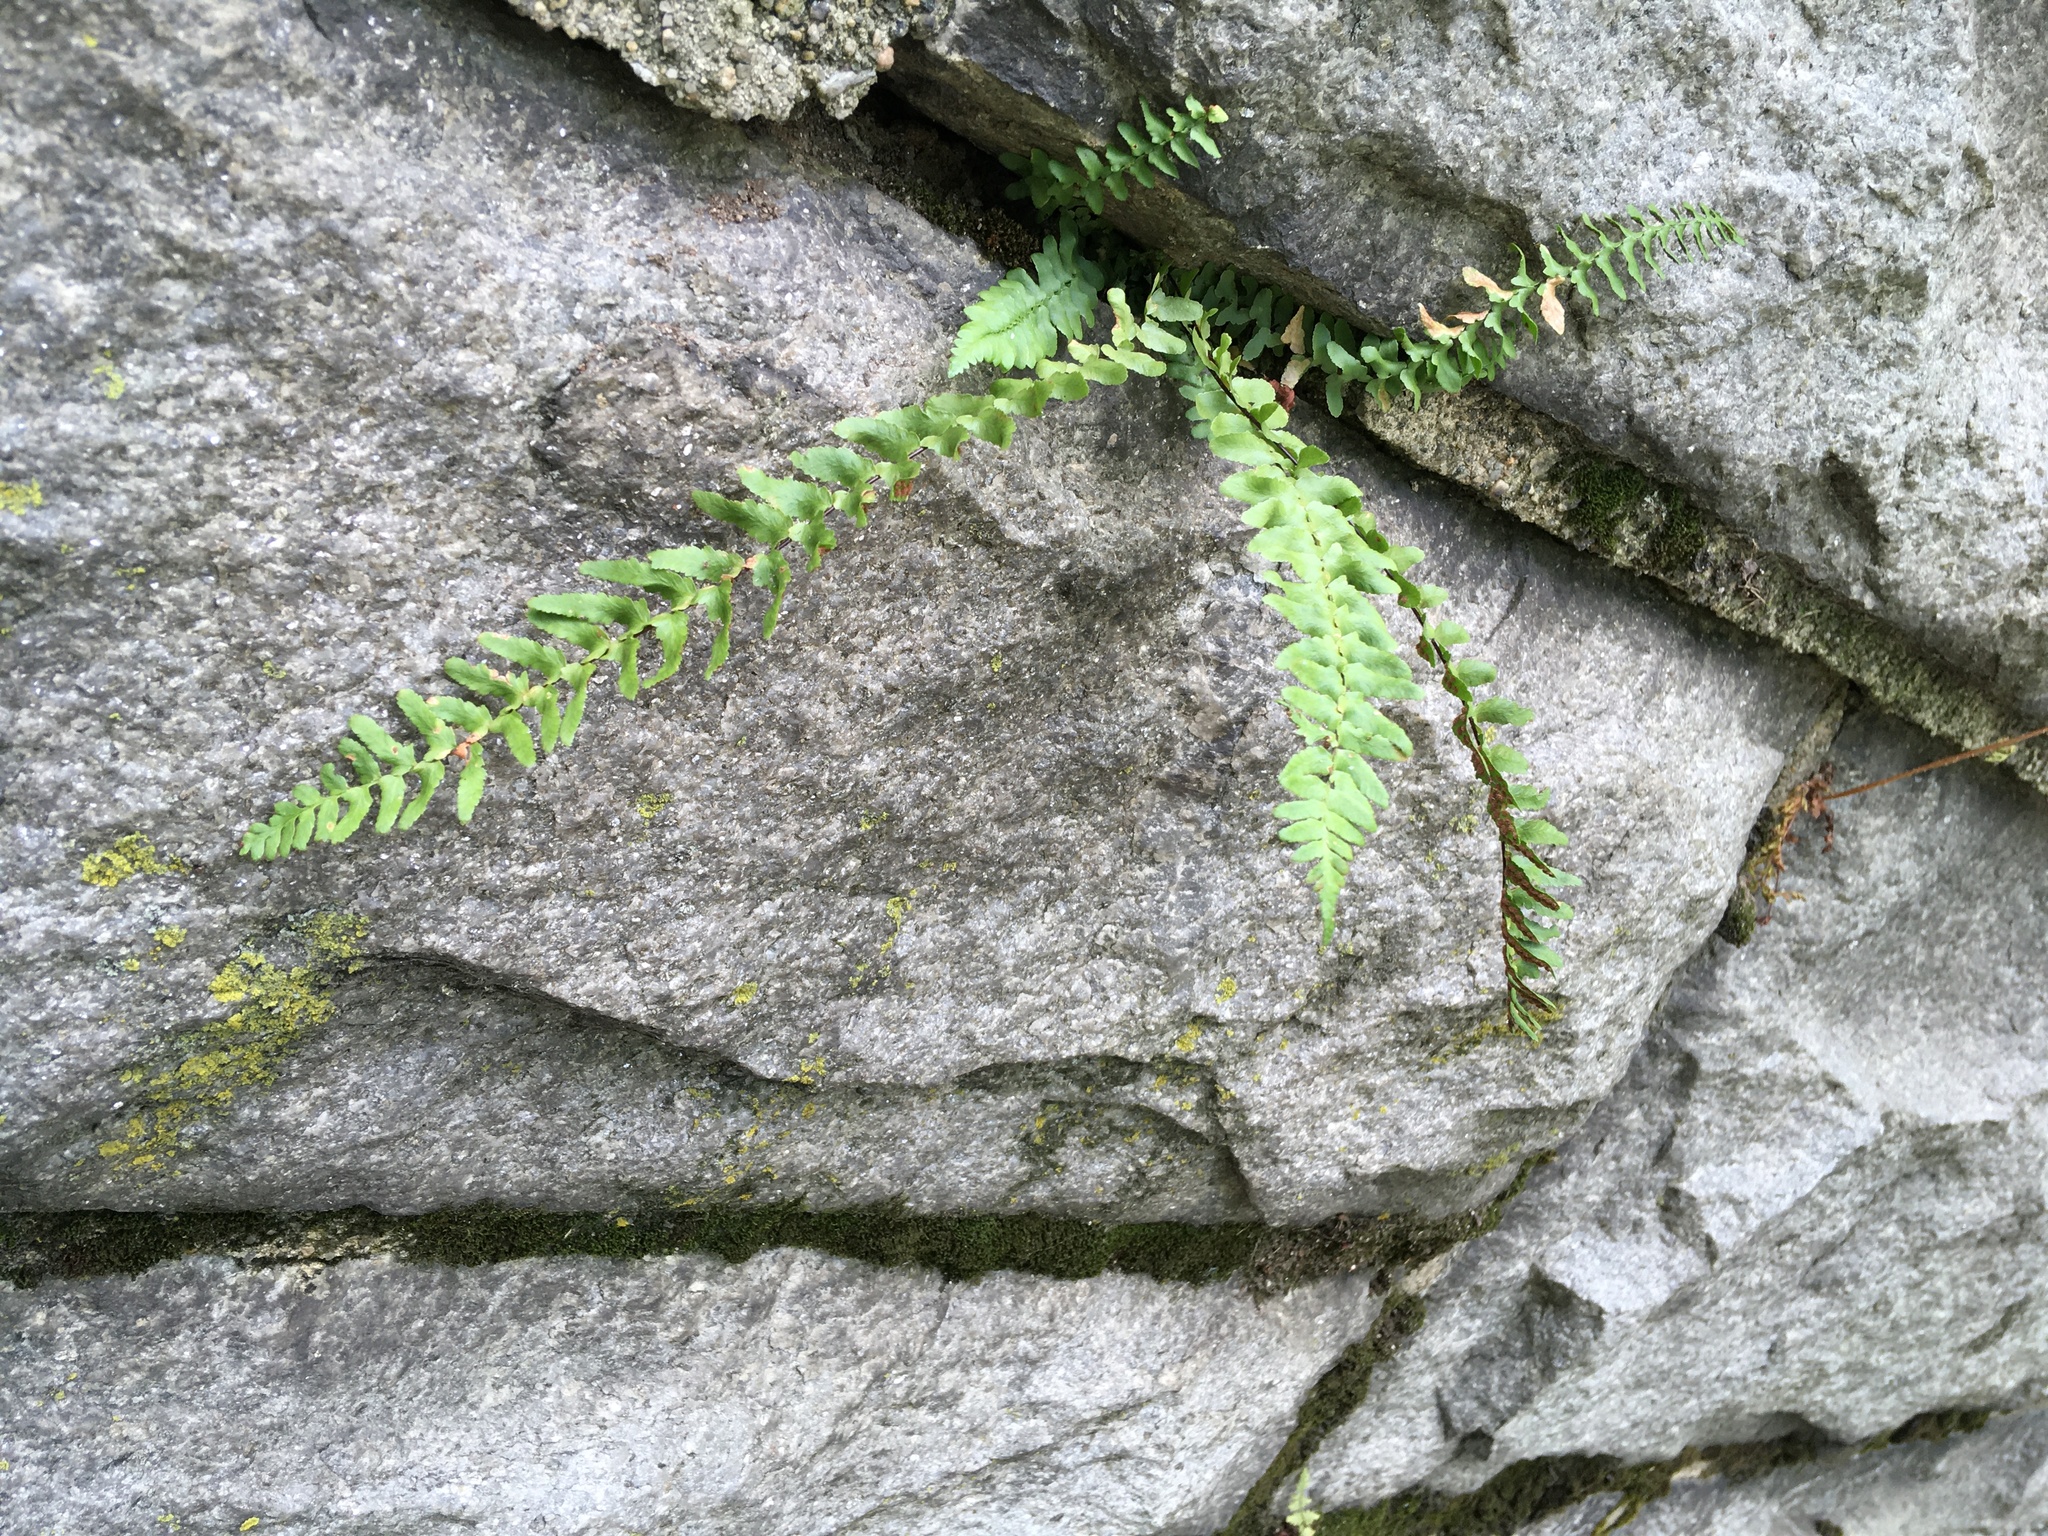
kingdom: Plantae
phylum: Tracheophyta
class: Polypodiopsida
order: Polypodiales
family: Aspleniaceae
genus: Asplenium
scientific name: Asplenium platyneuron
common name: Ebony spleenwort
